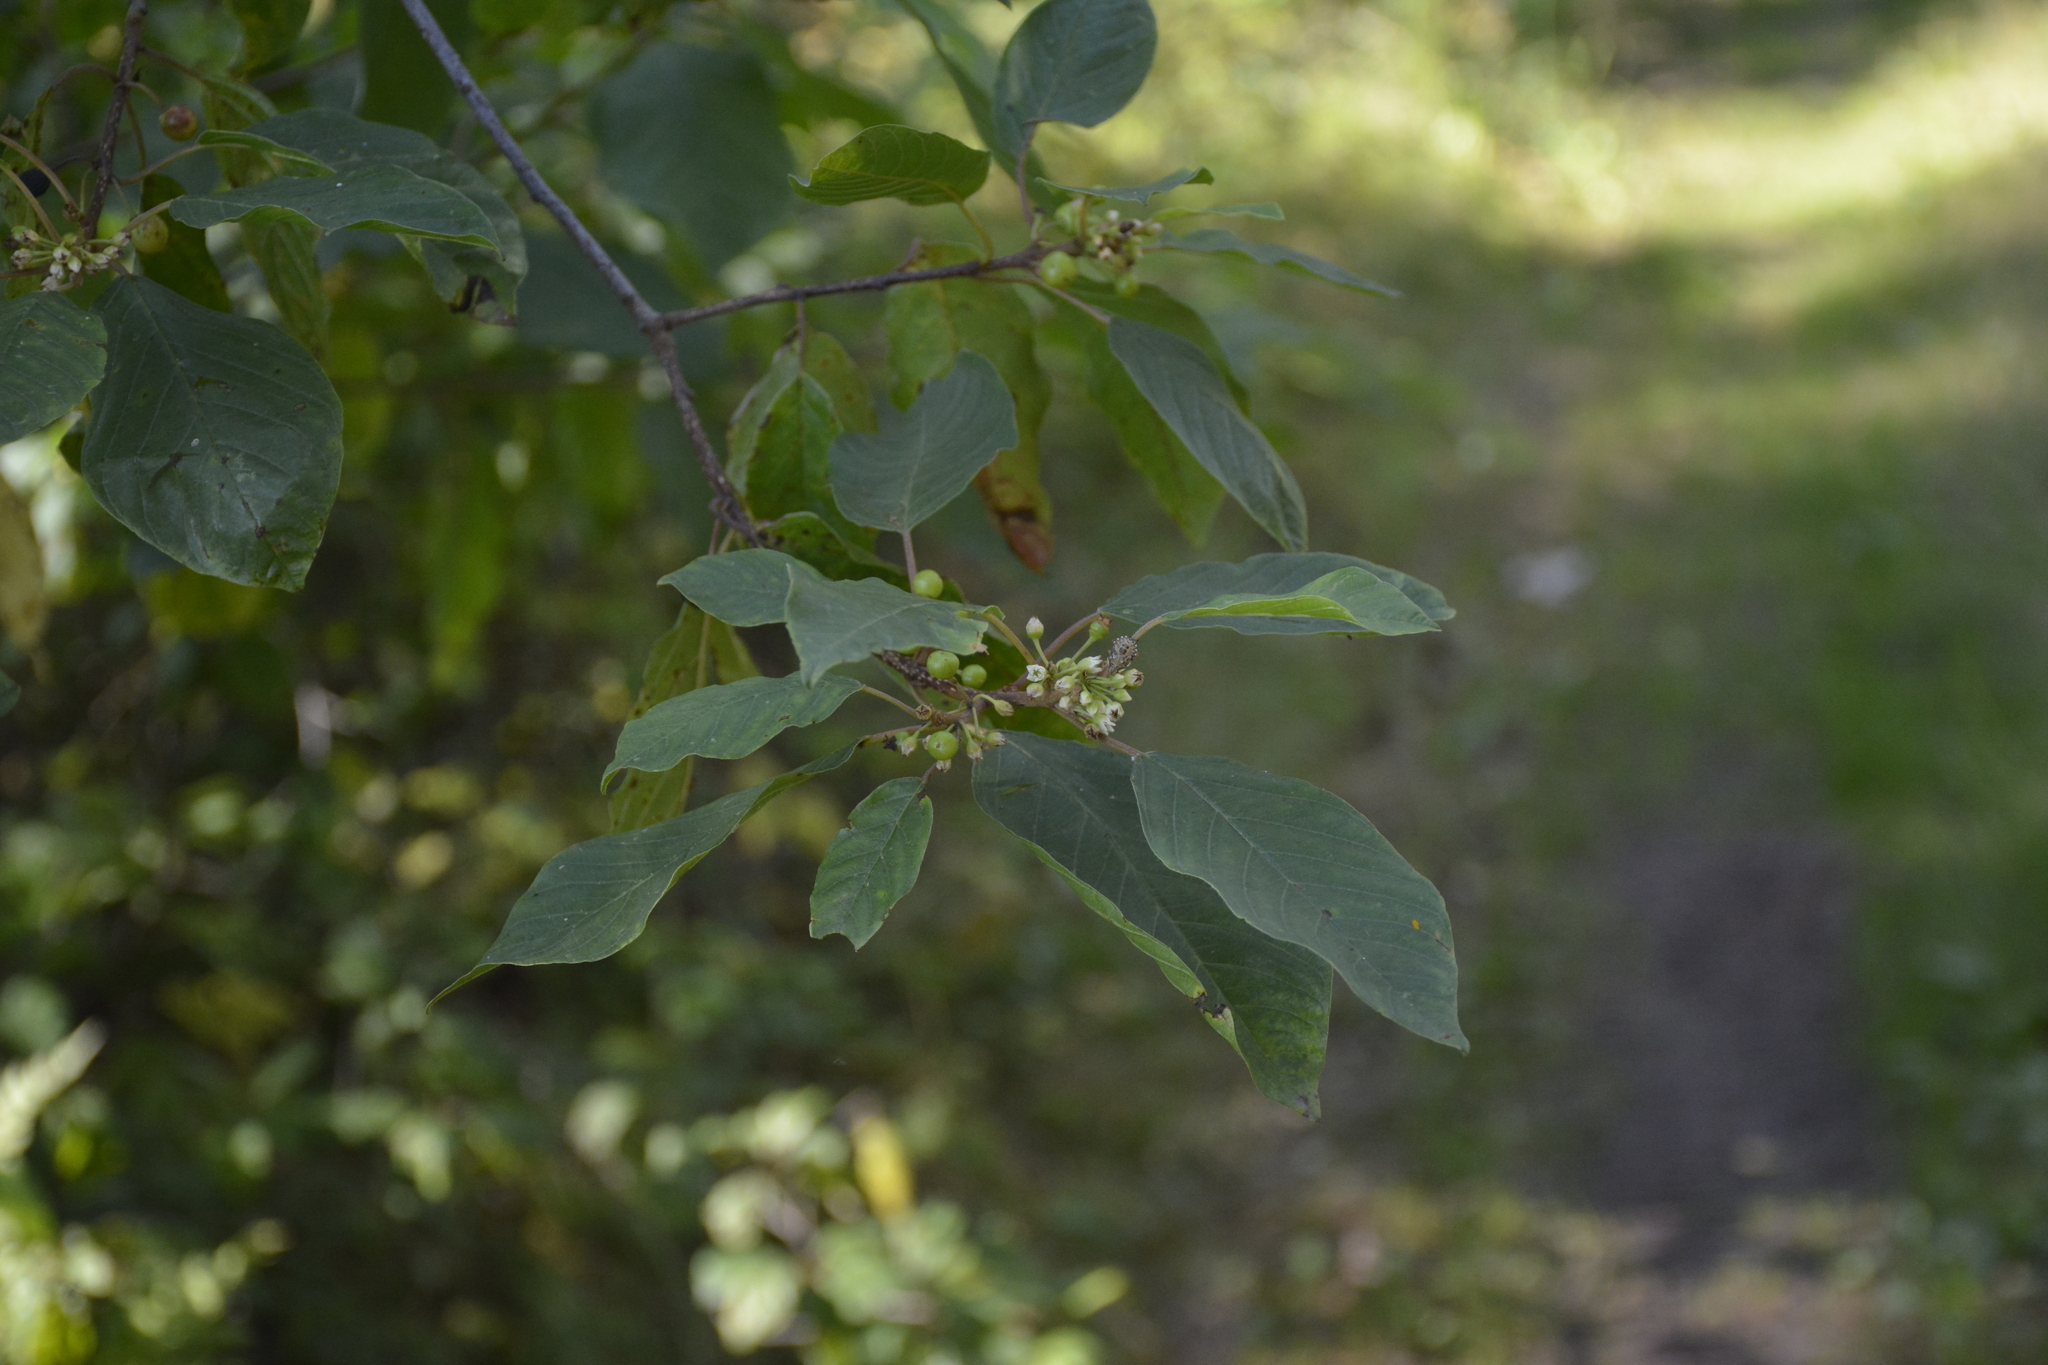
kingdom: Plantae
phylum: Tracheophyta
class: Magnoliopsida
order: Rosales
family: Rhamnaceae
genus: Frangula
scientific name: Frangula alnus
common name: Alder buckthorn
